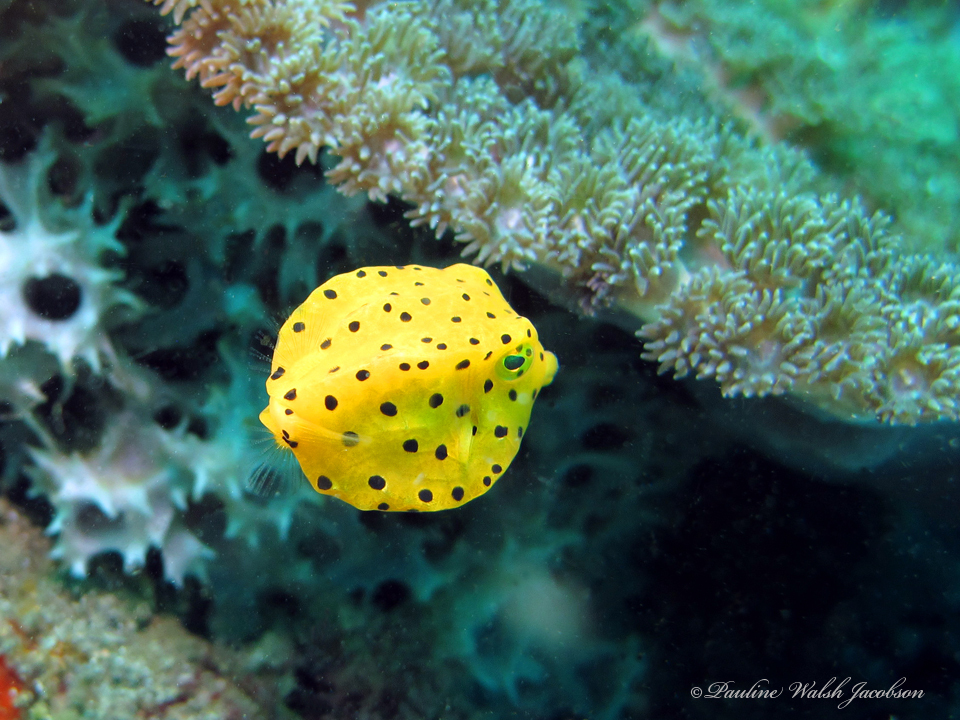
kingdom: Animalia
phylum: Chordata
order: Tetraodontiformes
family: Ostraciidae
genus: Ostracion
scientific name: Ostracion cubicus
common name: Cube trunkfish
